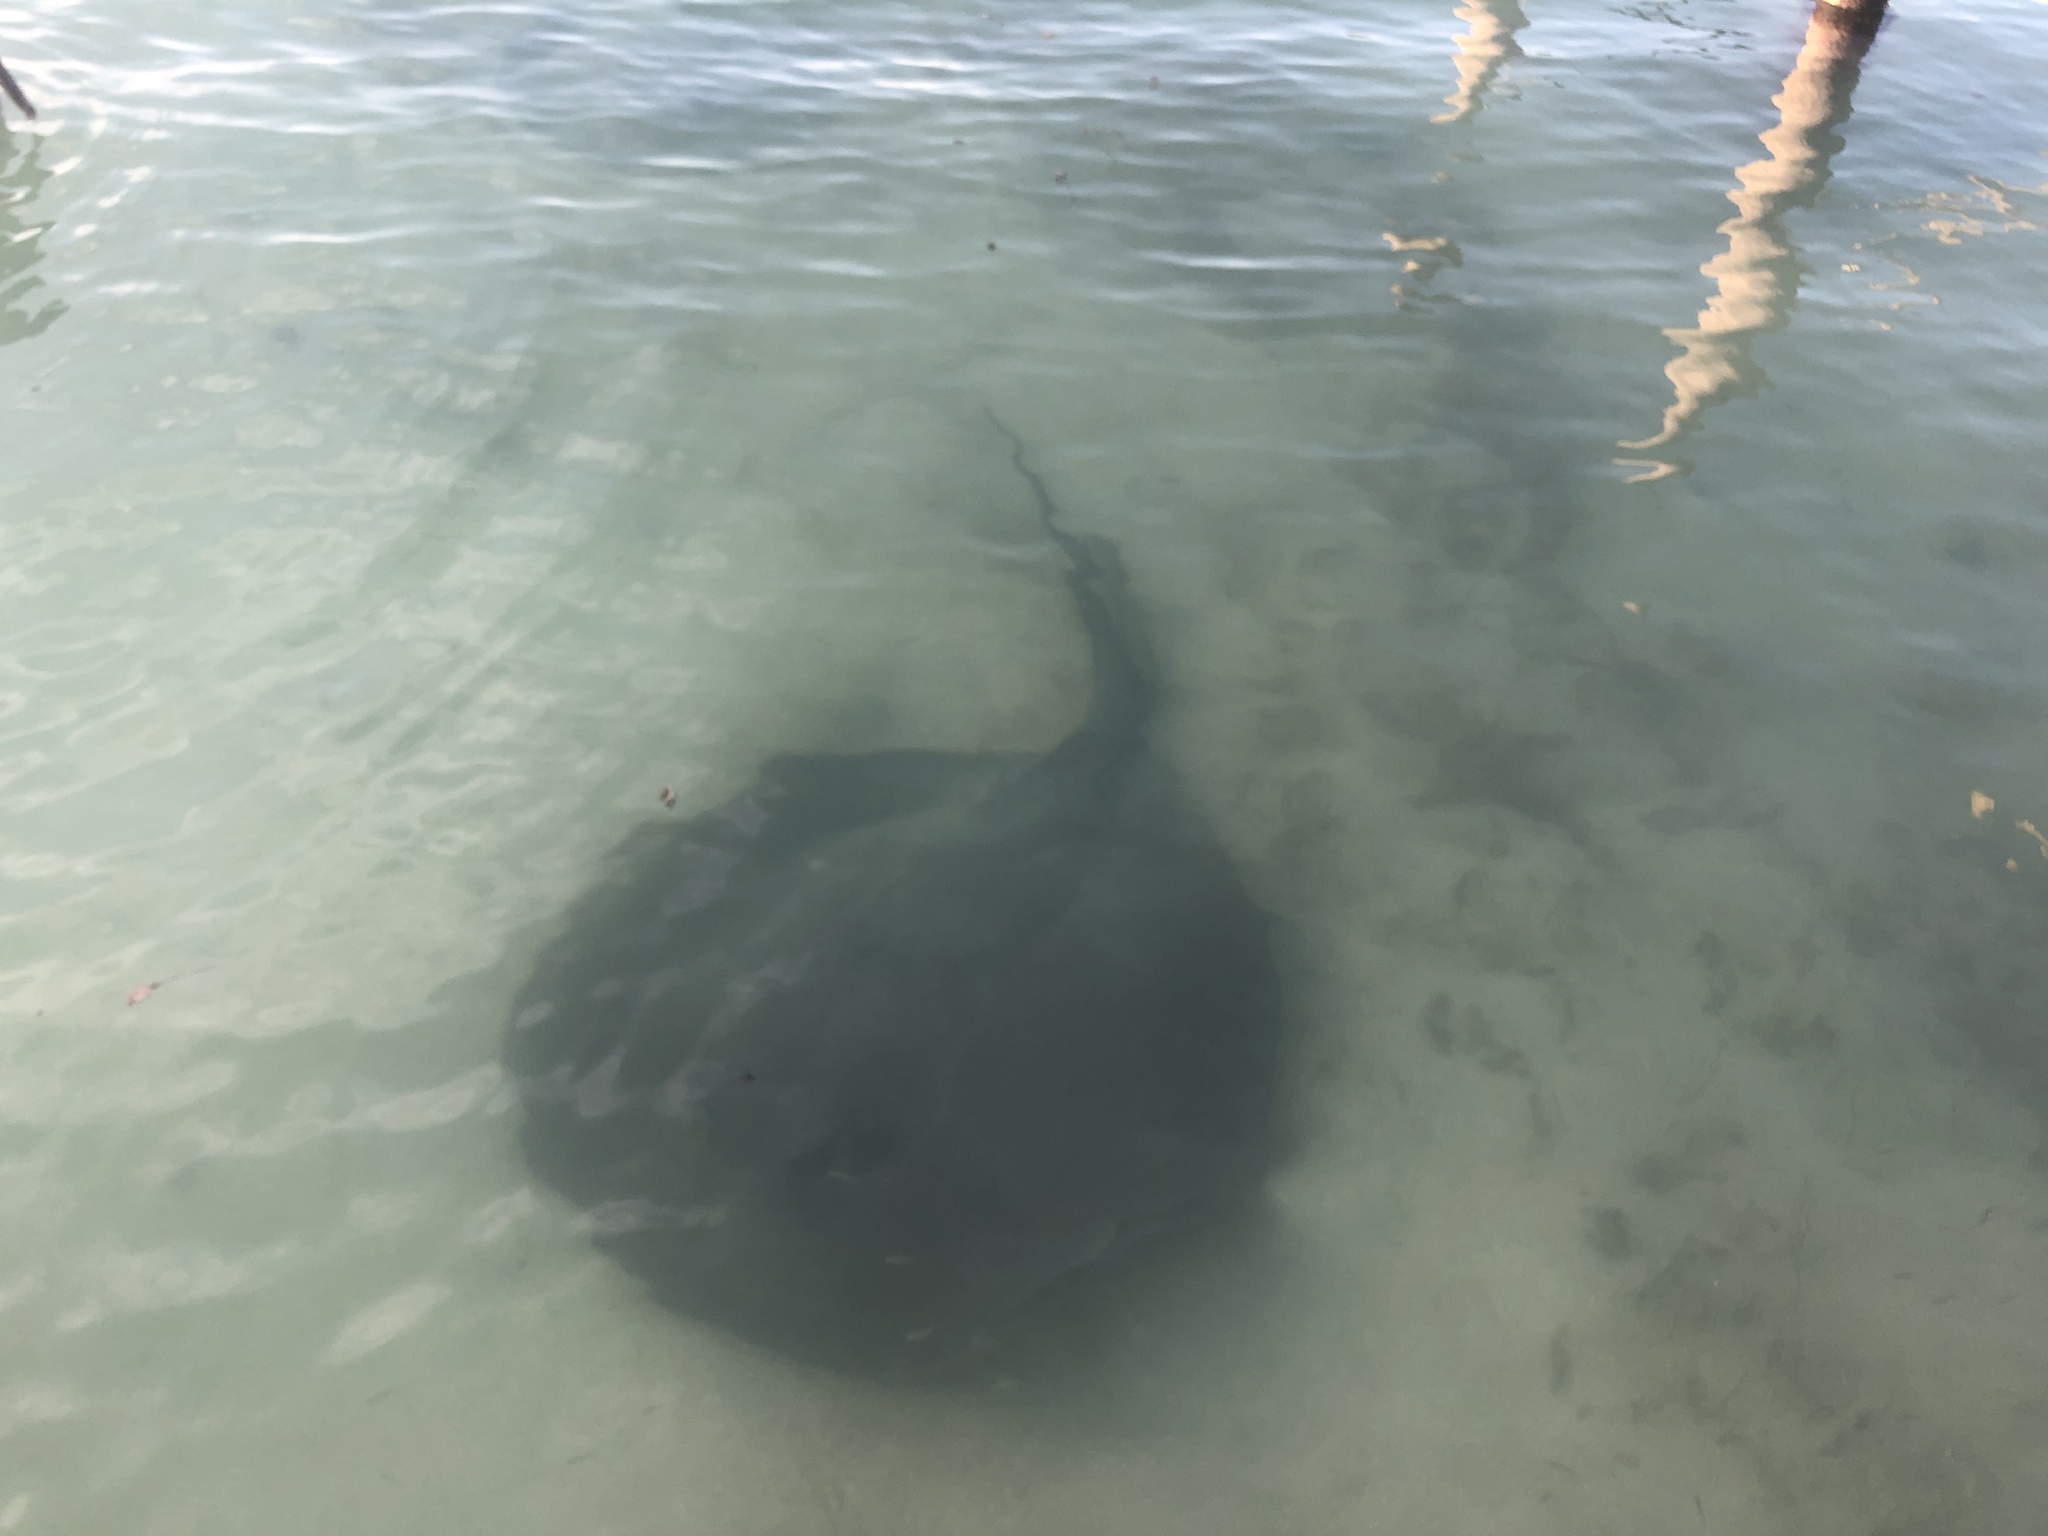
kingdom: Animalia
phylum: Chordata
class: Elasmobranchii
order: Myliobatiformes
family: Potamotrygonidae
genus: Styracura
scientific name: Styracura schmardae
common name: Atlantic chupare
